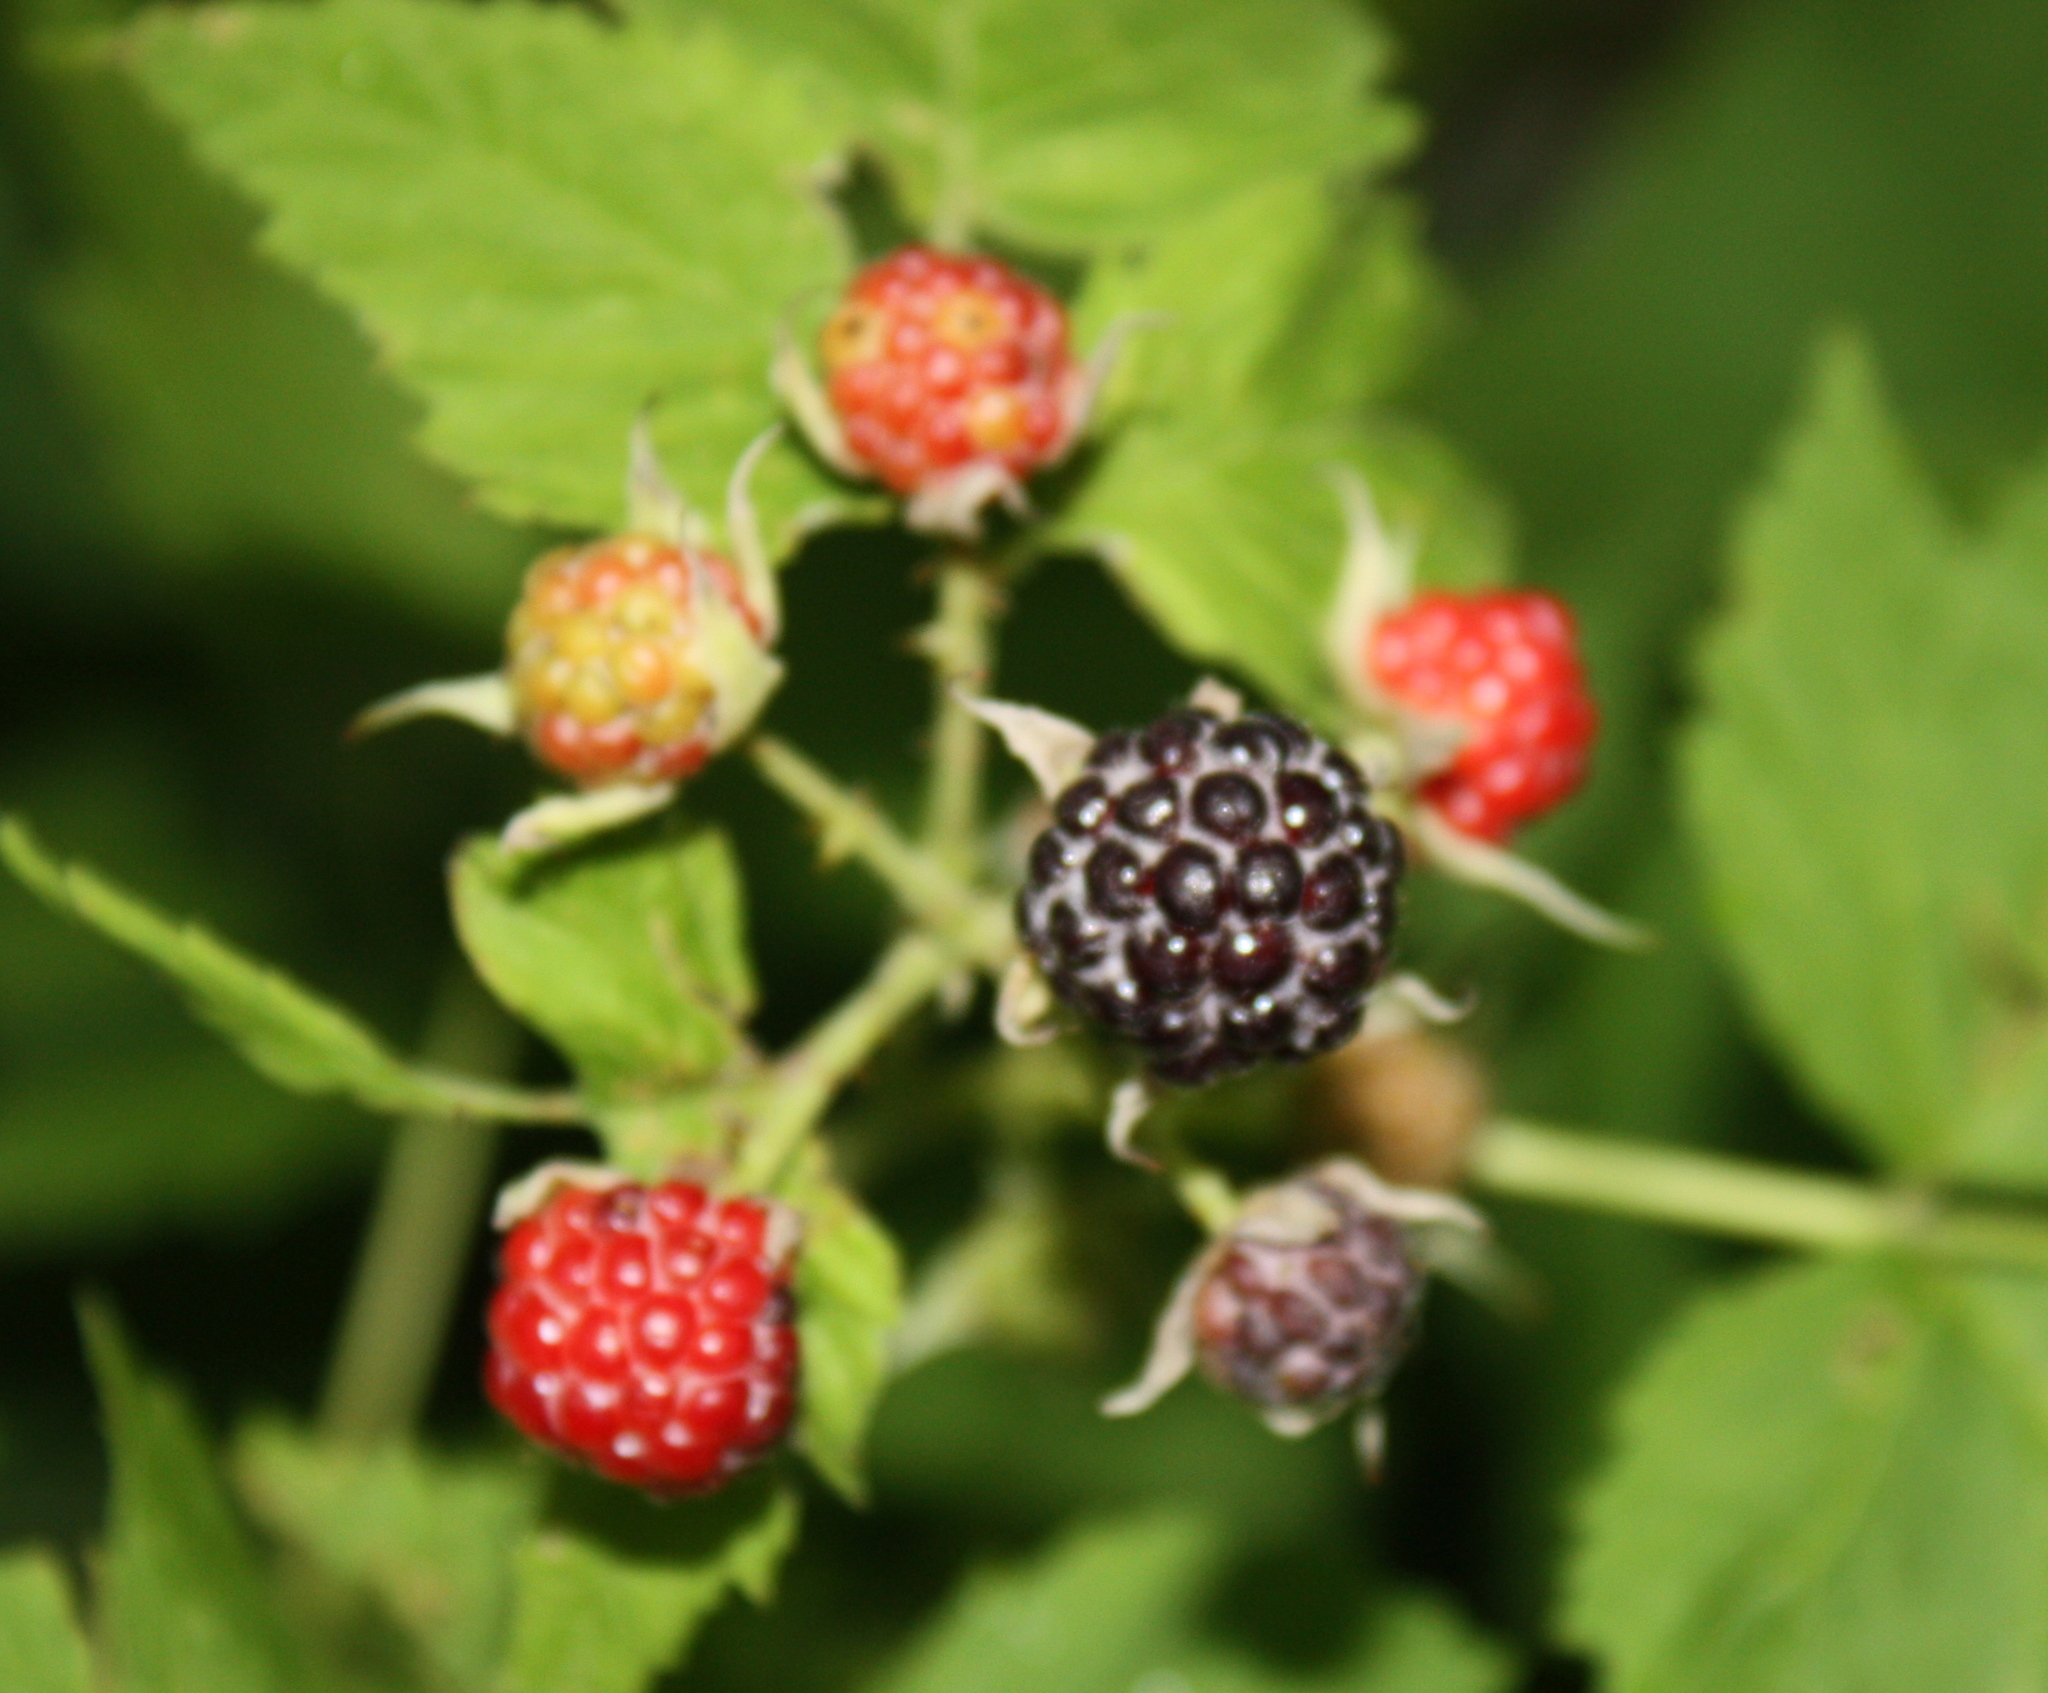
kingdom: Plantae
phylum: Tracheophyta
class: Magnoliopsida
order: Rosales
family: Rosaceae
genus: Rubus
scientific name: Rubus occidentalis
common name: Black raspberry
